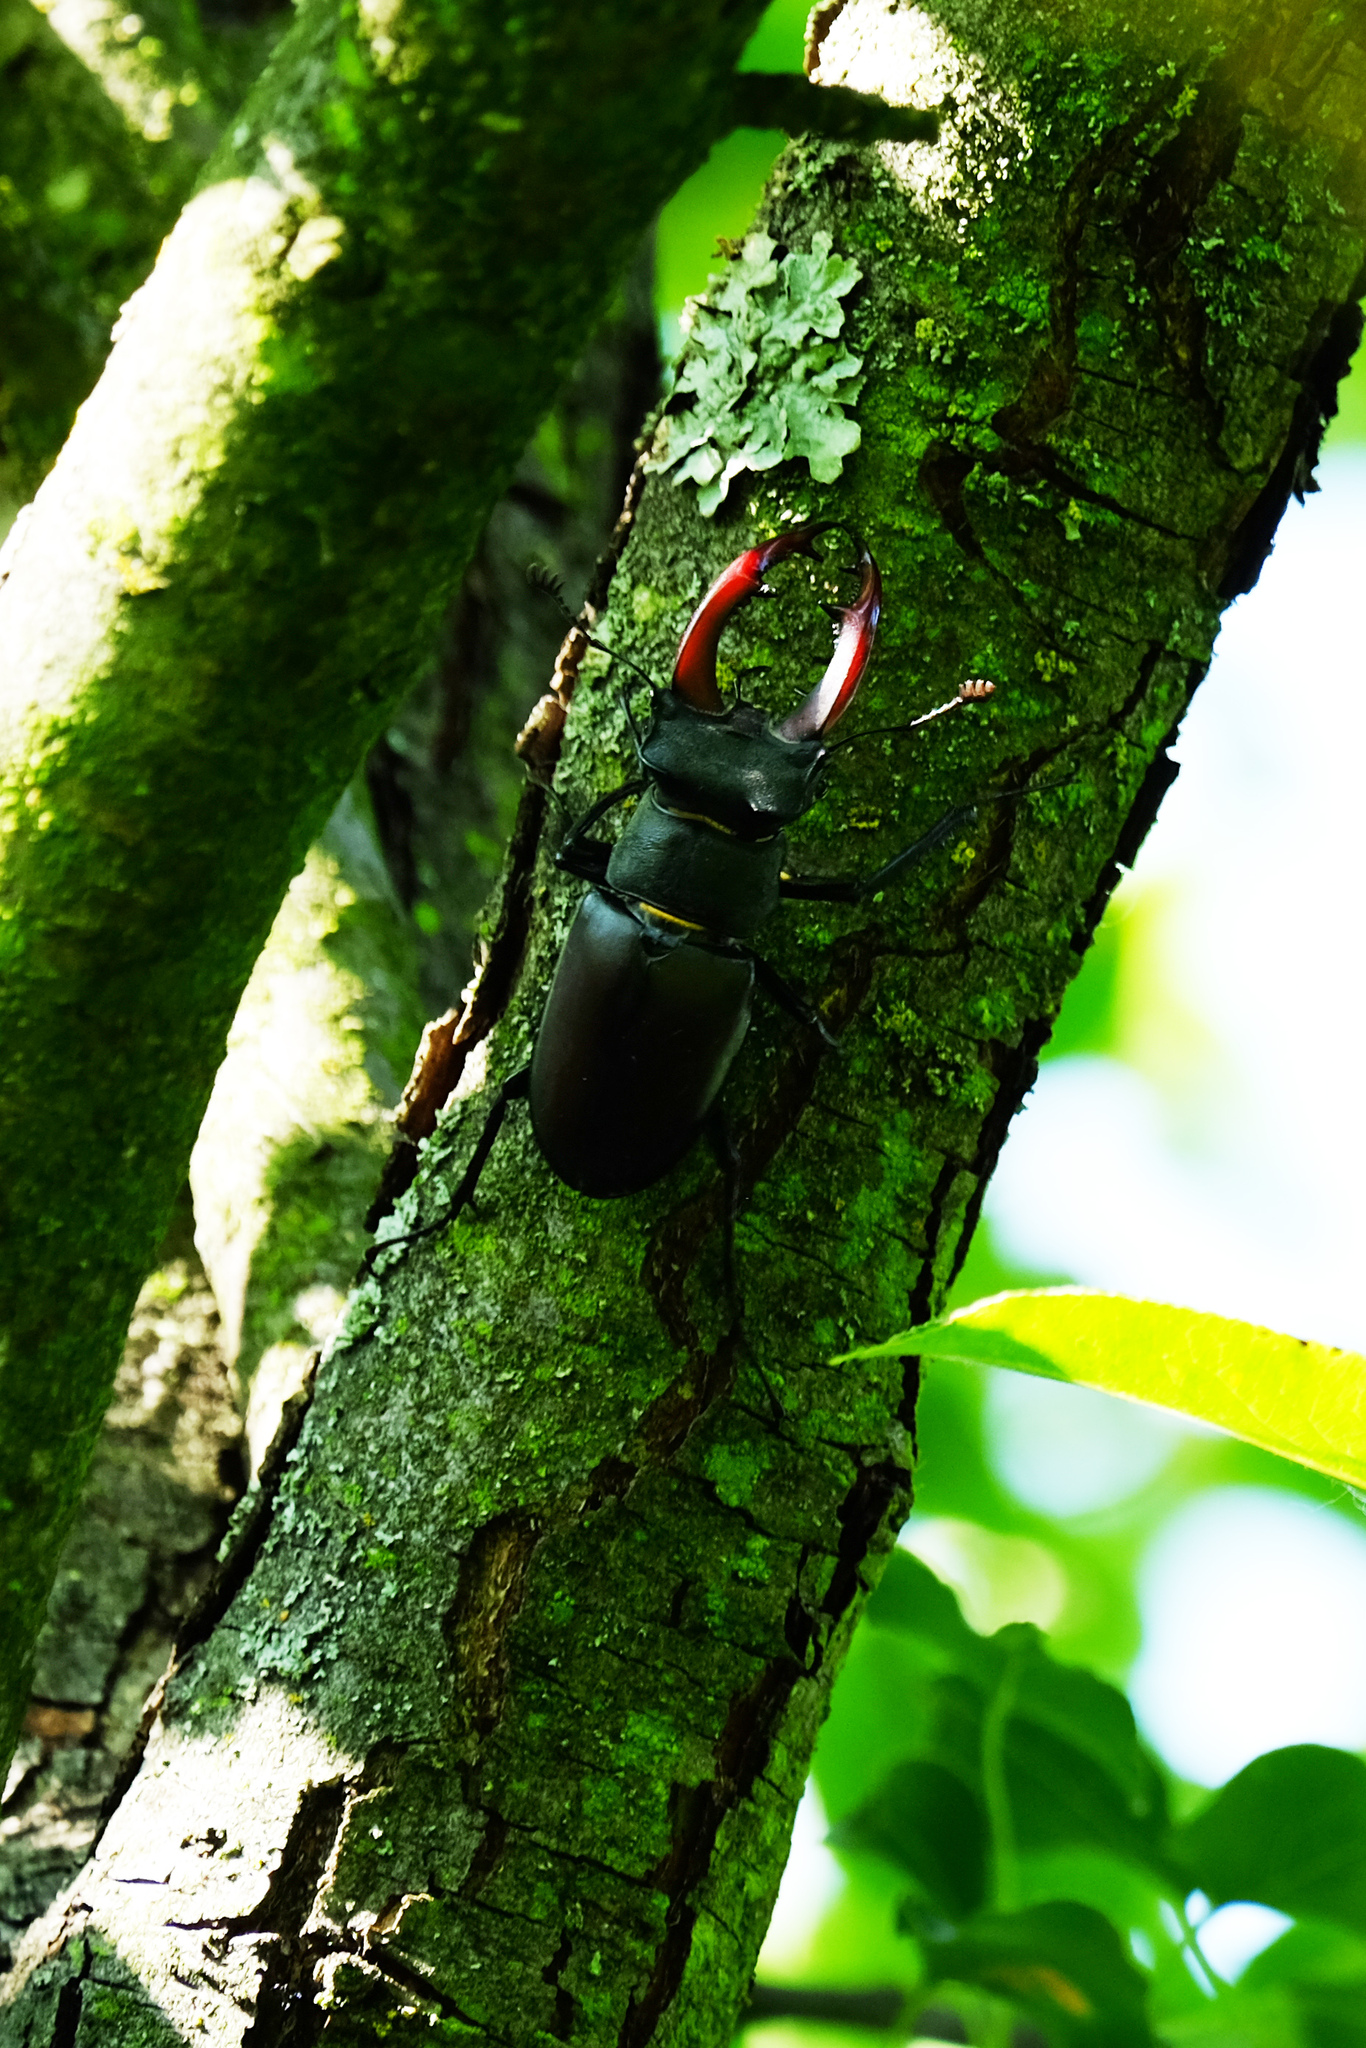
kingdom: Animalia
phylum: Arthropoda
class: Insecta
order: Coleoptera
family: Lucanidae
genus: Lucanus
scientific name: Lucanus cervus
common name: Stag beetle
